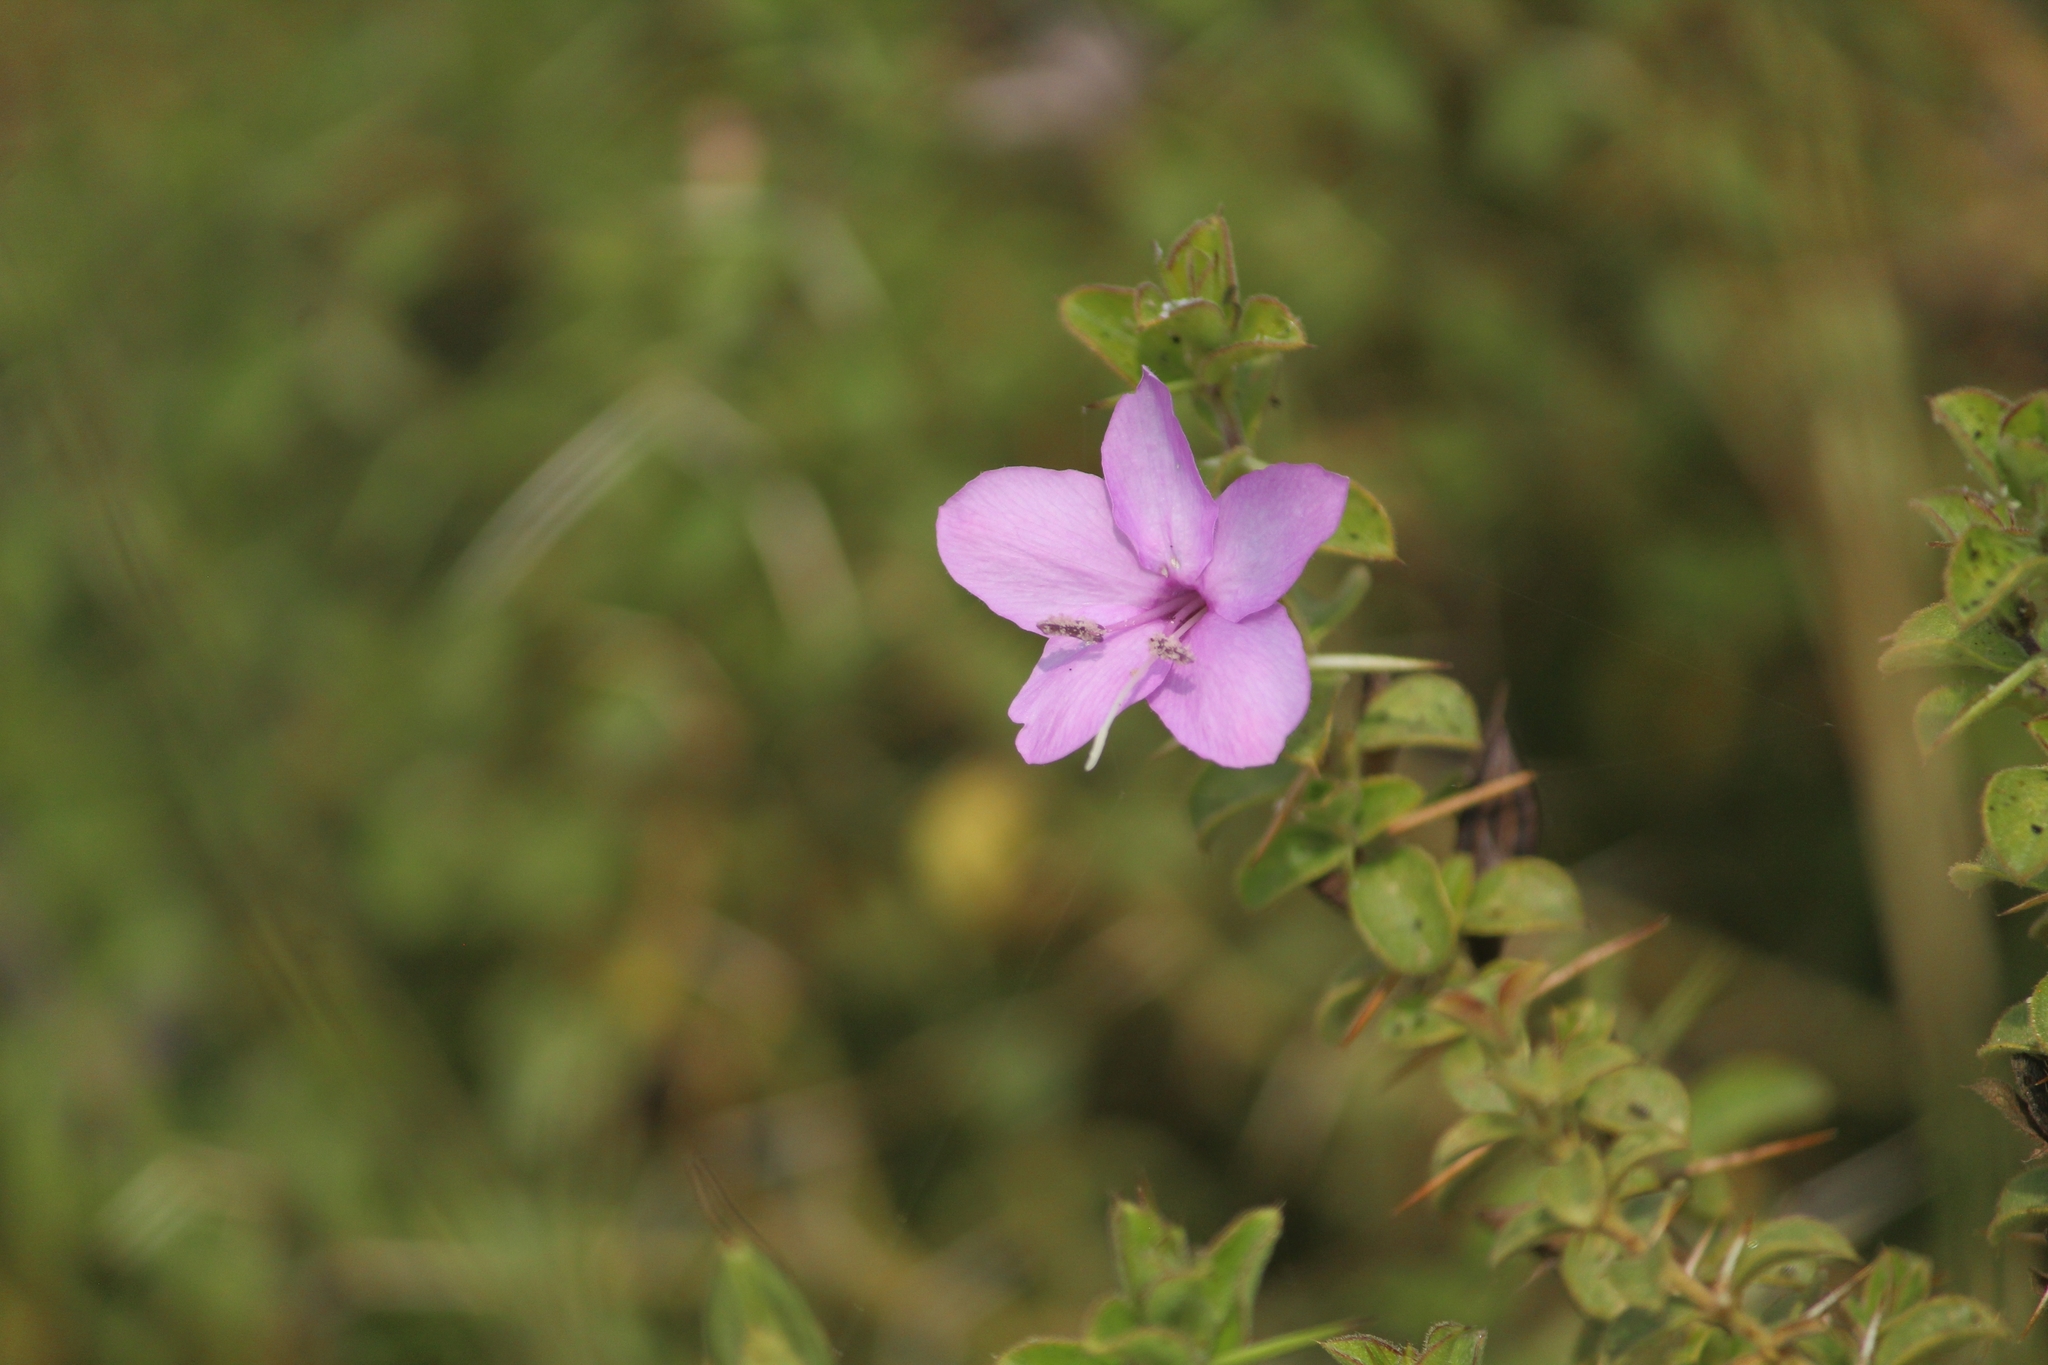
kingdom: Plantae
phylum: Tracheophyta
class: Magnoliopsida
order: Lamiales
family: Acanthaceae
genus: Barleria
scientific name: Barleria mysorensis
